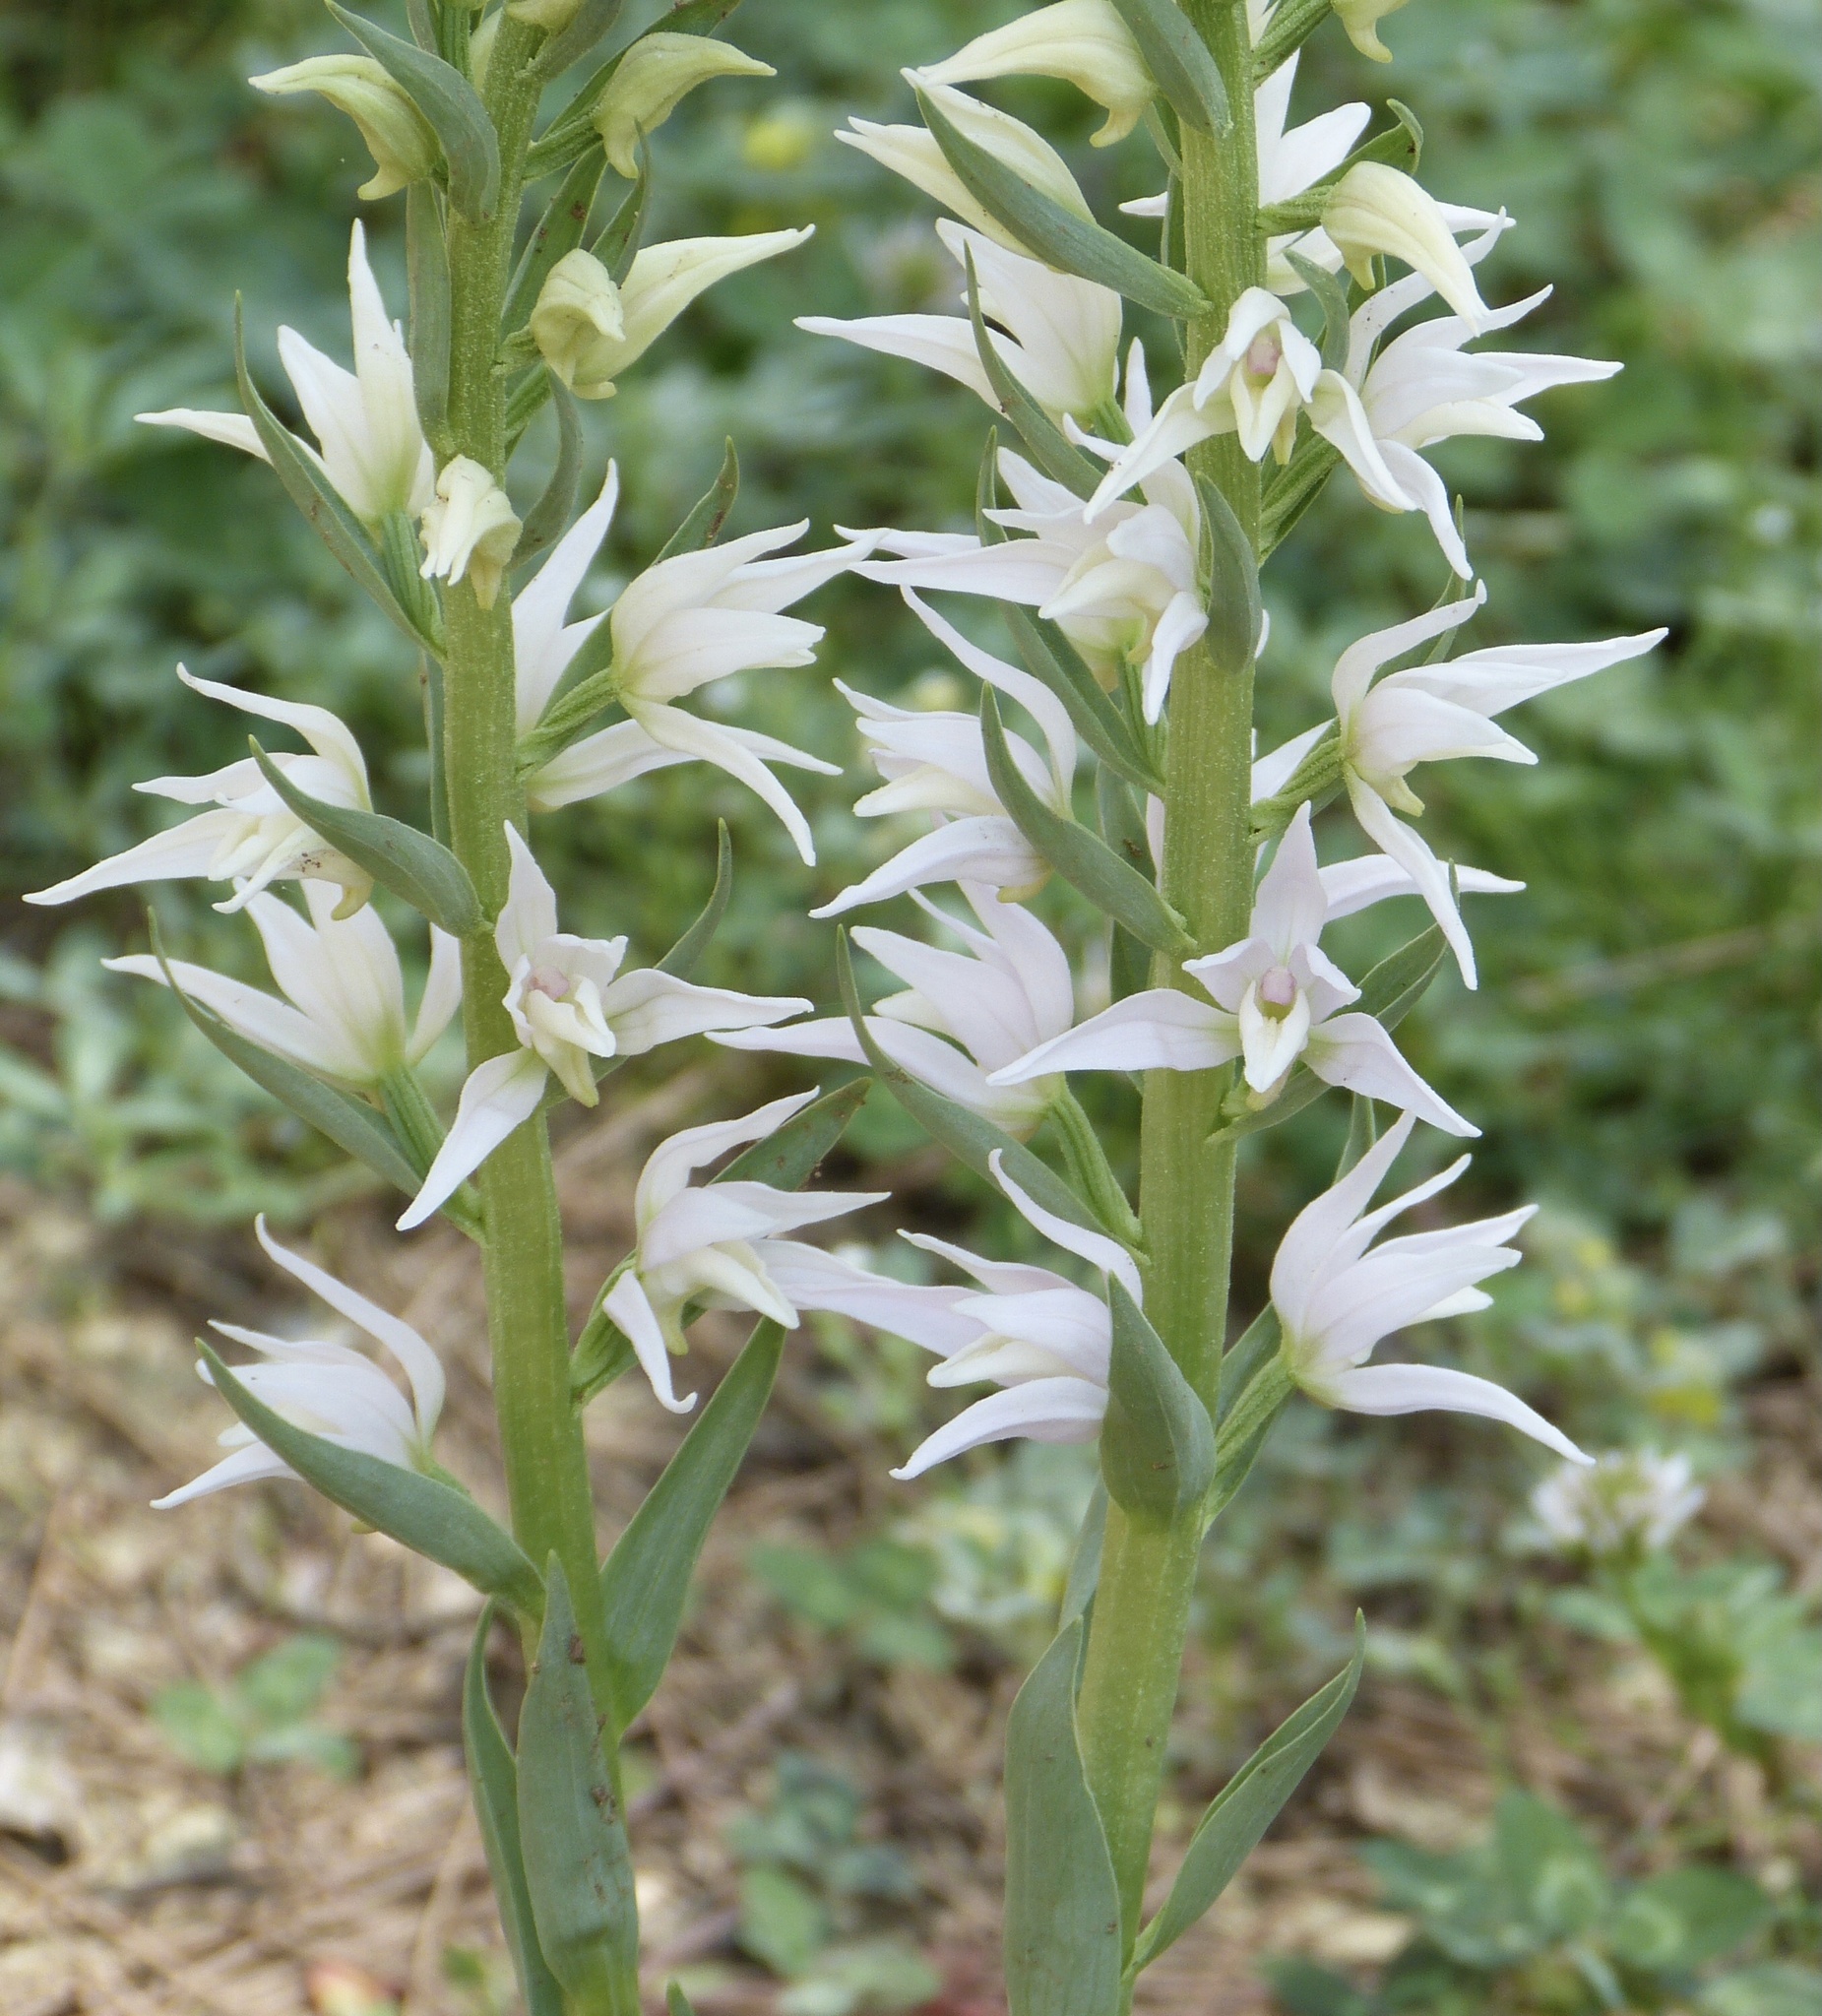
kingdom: Plantae
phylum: Tracheophyta
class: Liliopsida
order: Asparagales
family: Orchidaceae
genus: Cephalanthera
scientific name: Cephalanthera epipactoides
